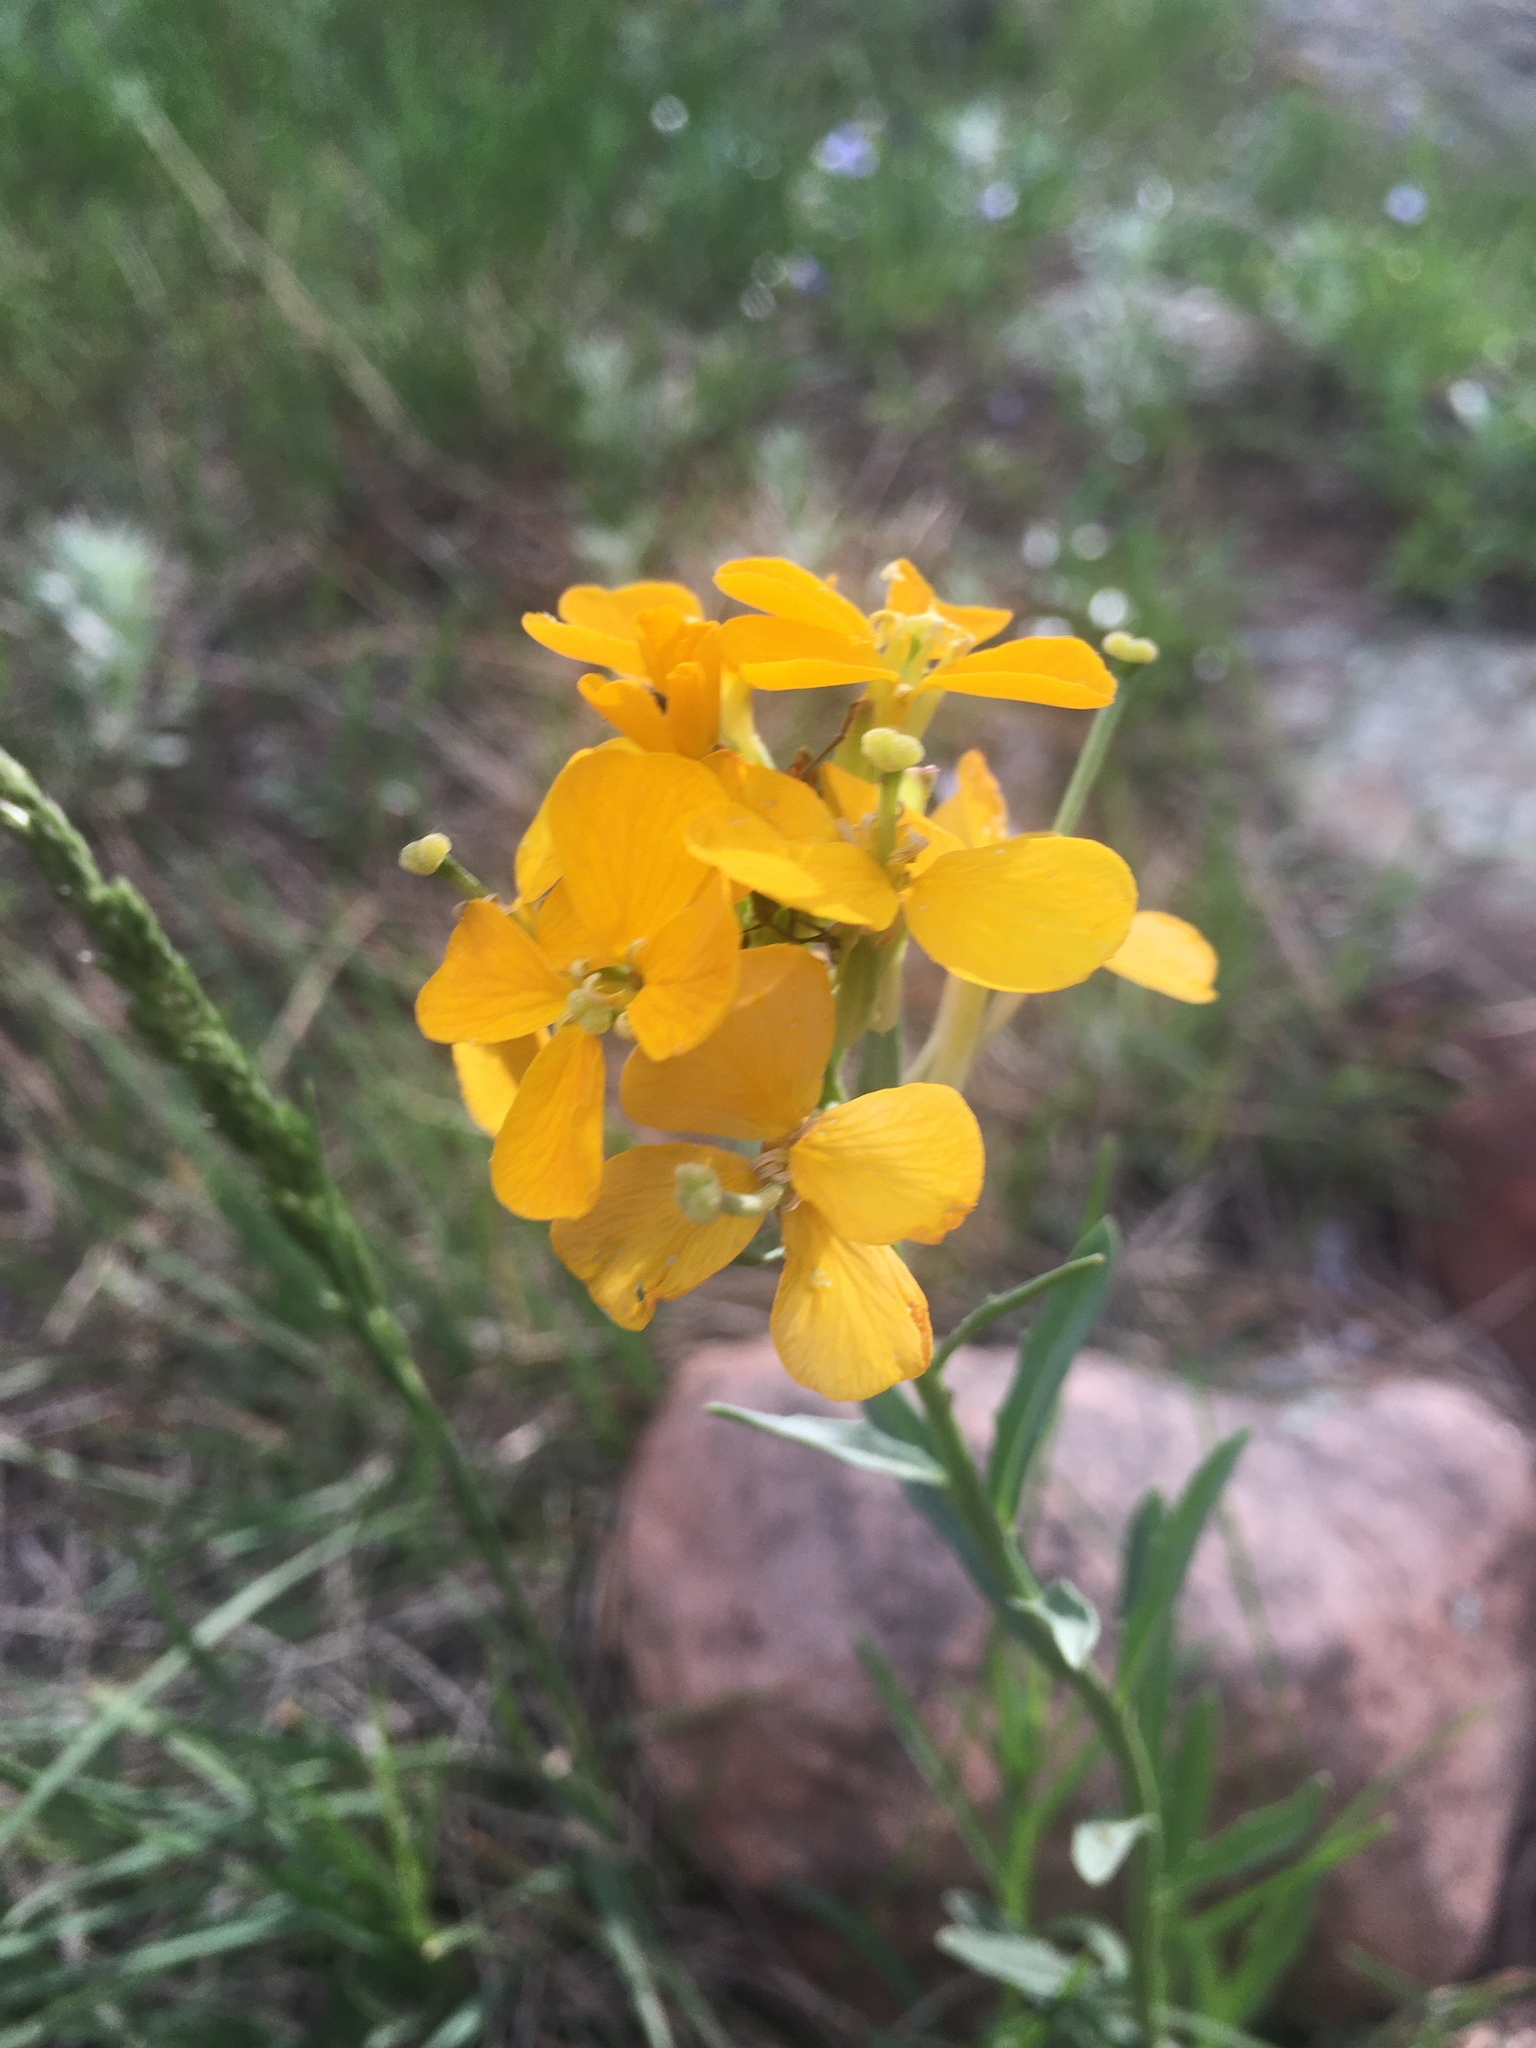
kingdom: Plantae
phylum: Tracheophyta
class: Magnoliopsida
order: Brassicales
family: Brassicaceae
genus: Erysimum
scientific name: Erysimum capitatum
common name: Western wallflower
